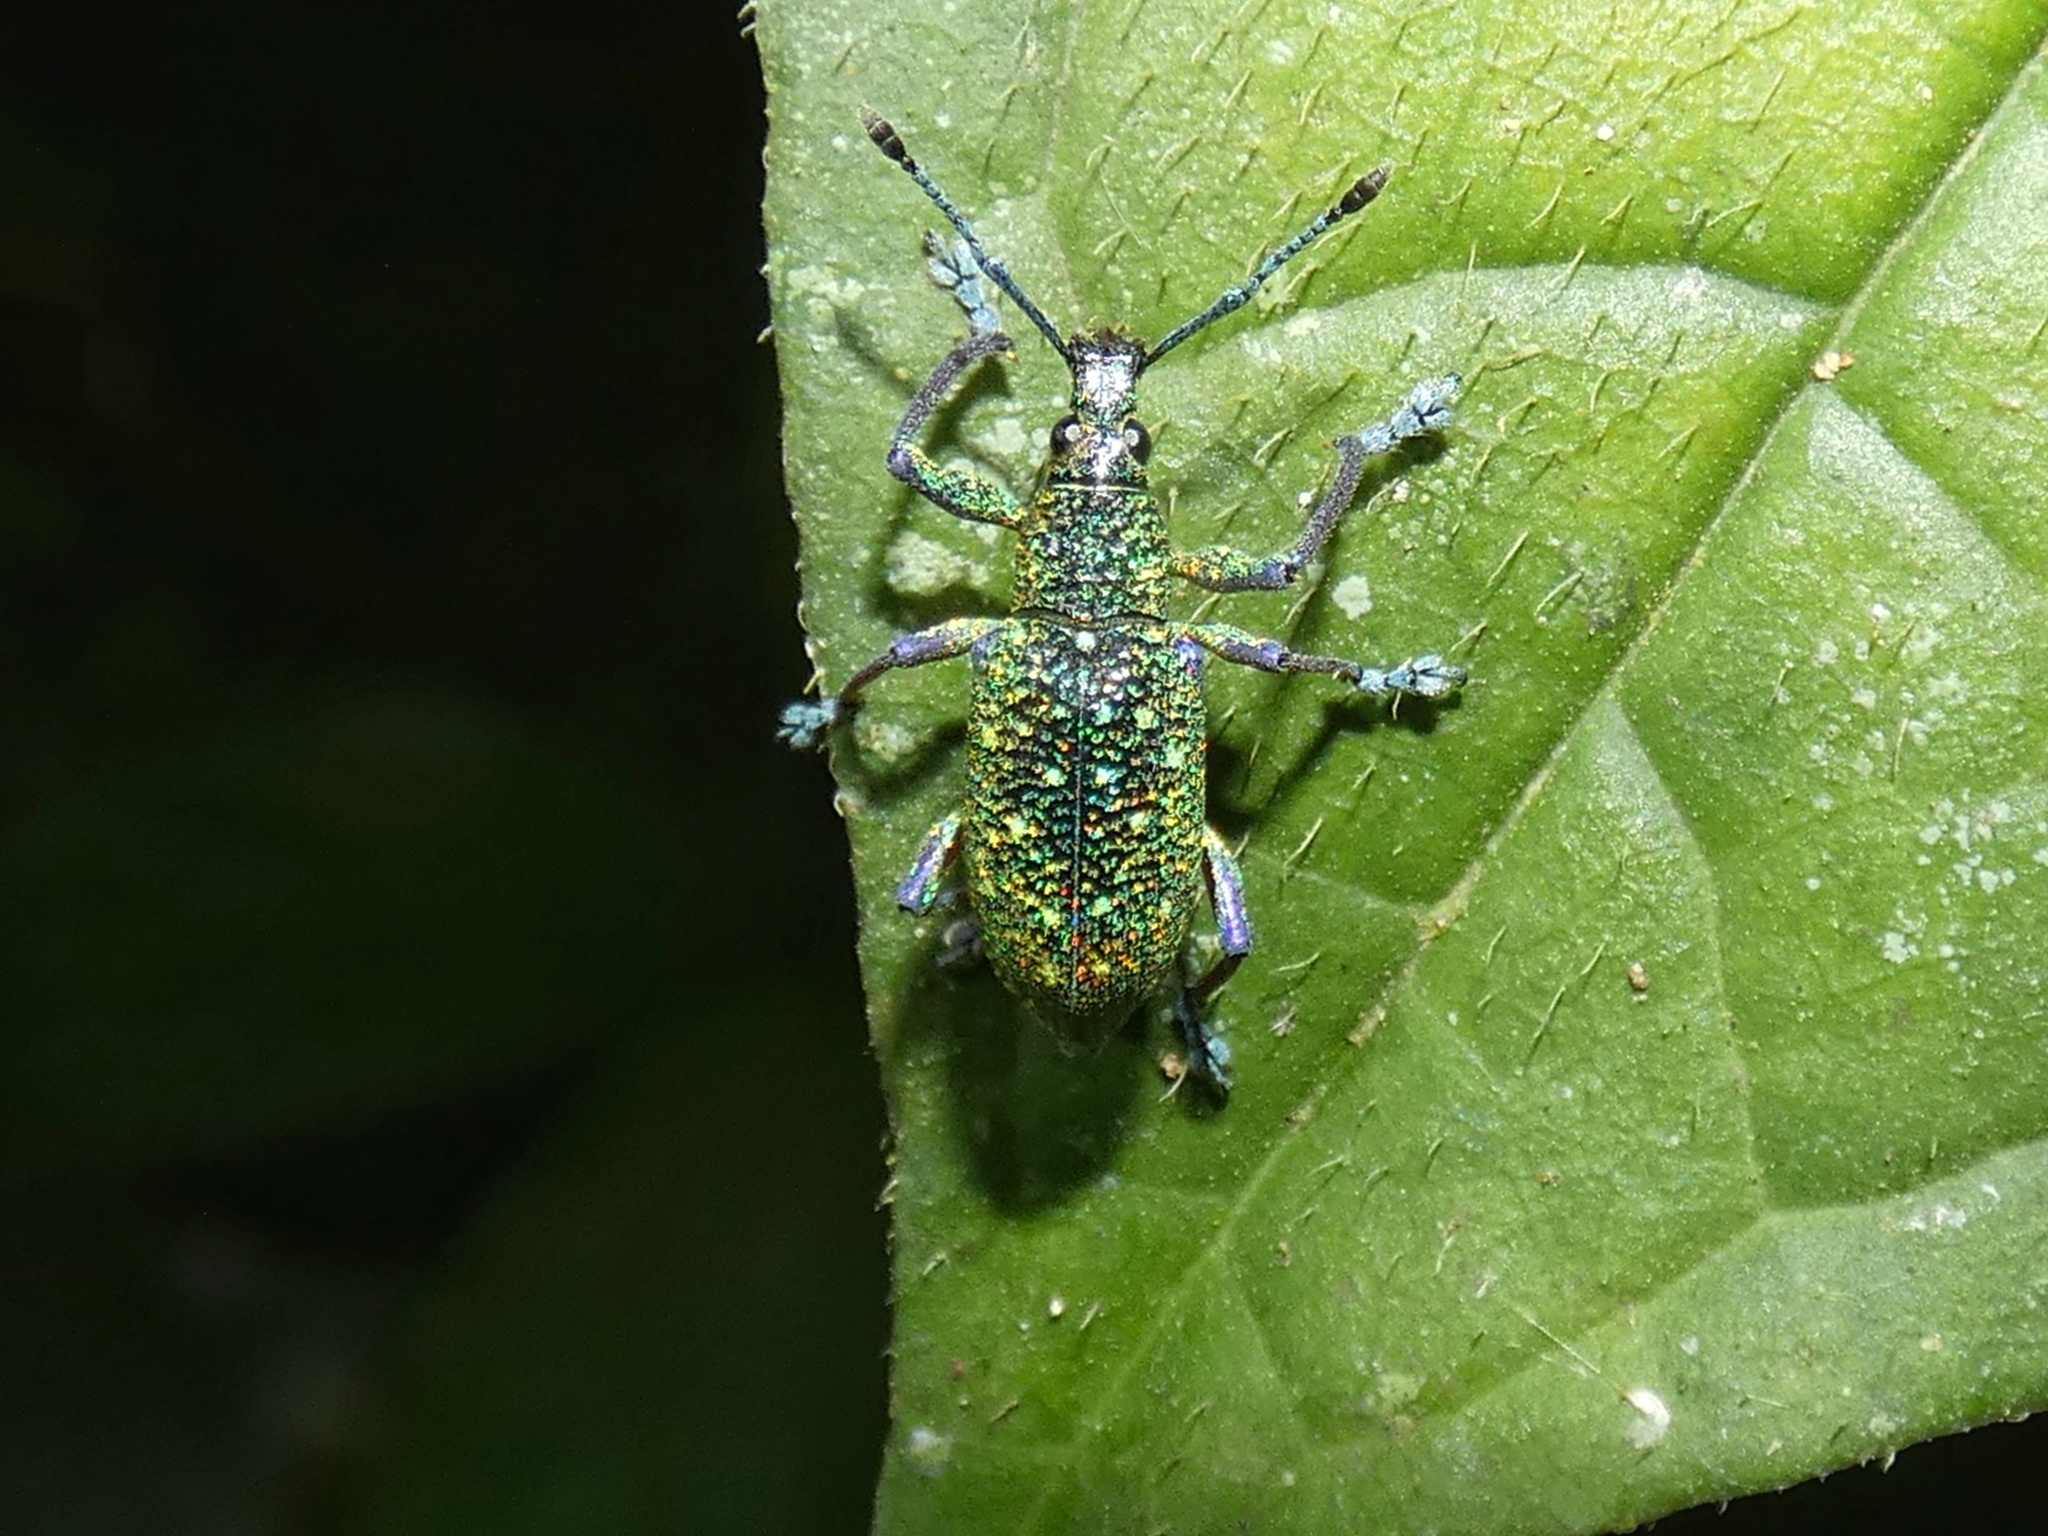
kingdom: Animalia
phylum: Arthropoda
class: Insecta
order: Coleoptera
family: Curculionidae
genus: Exophthalmus
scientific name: Exophthalmus jekelianus
